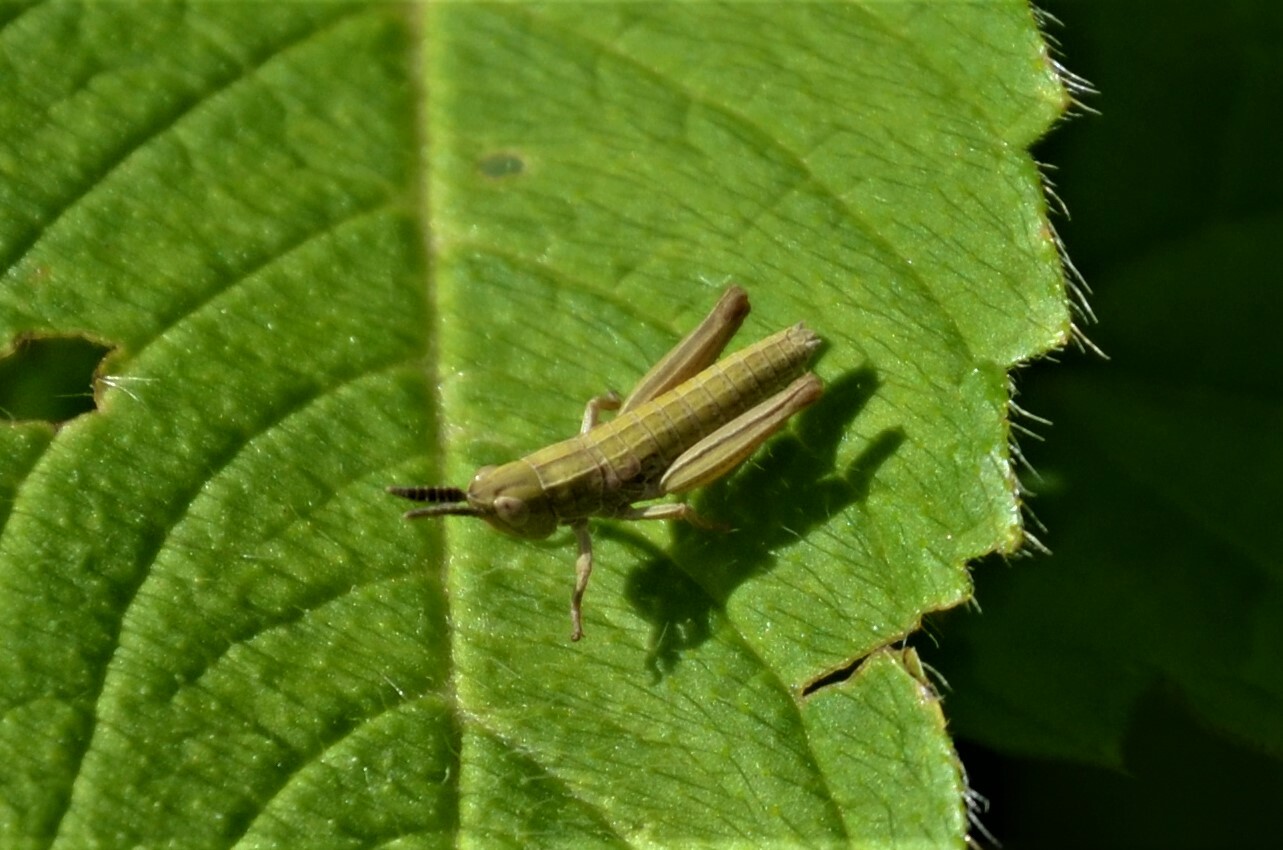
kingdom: Animalia
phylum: Arthropoda
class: Insecta
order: Orthoptera
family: Acrididae
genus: Euthystira
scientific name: Euthystira brachyptera
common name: Small gold grasshopper
